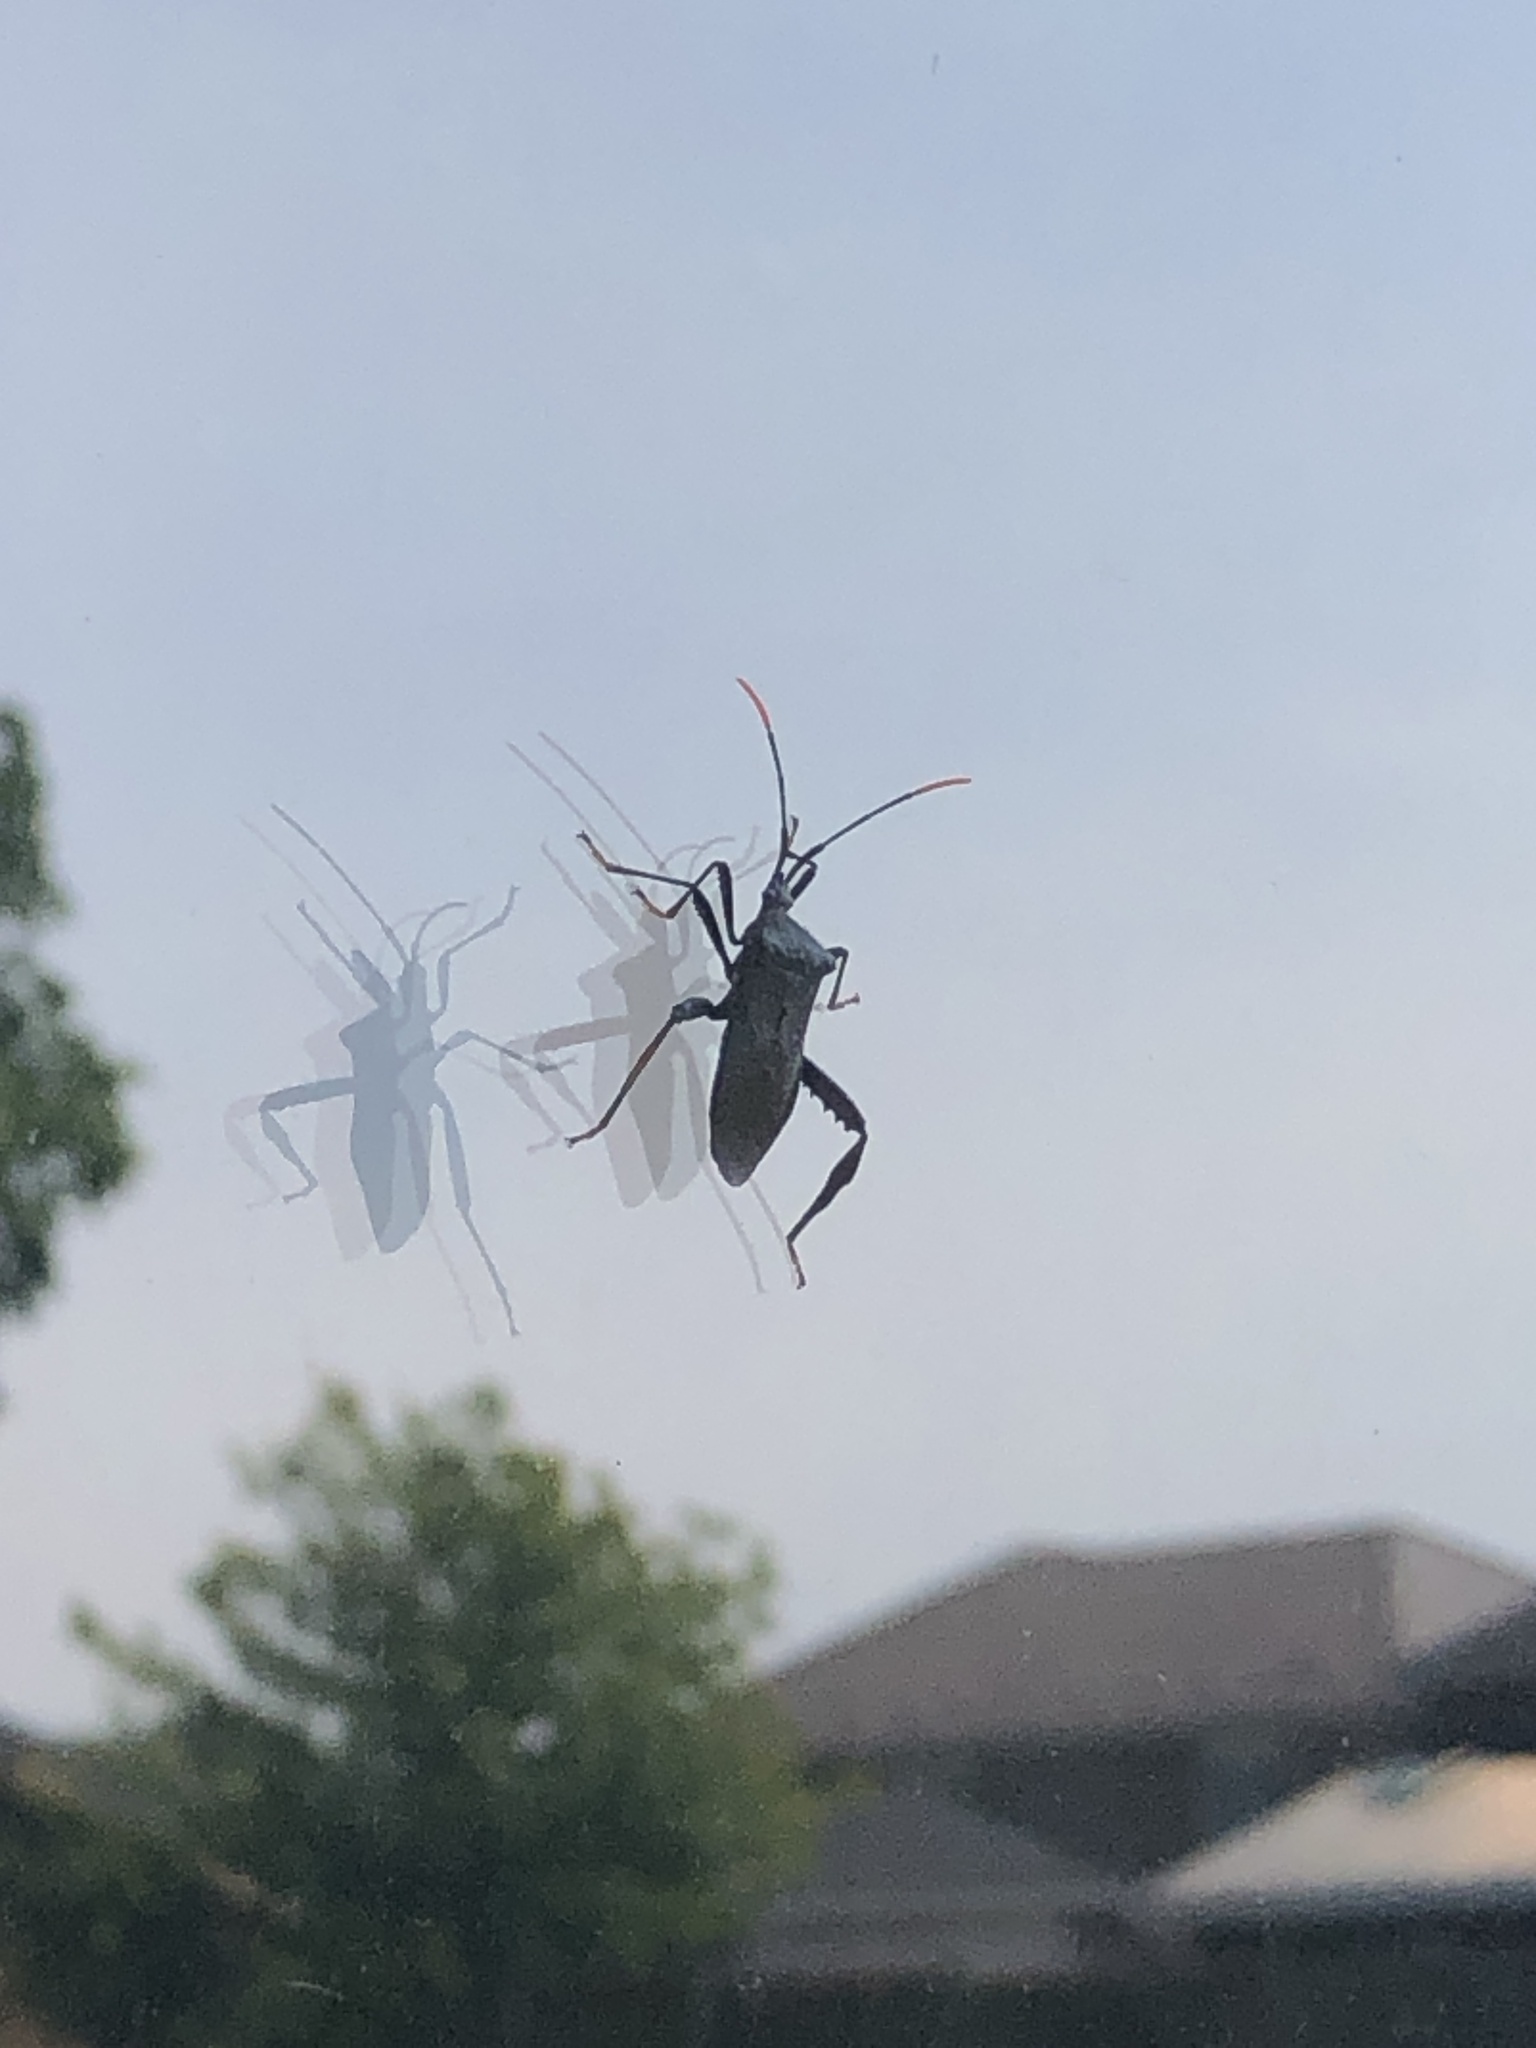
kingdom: Animalia
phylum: Arthropoda
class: Insecta
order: Hemiptera
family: Coreidae
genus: Acanthocephala
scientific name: Acanthocephala terminalis
